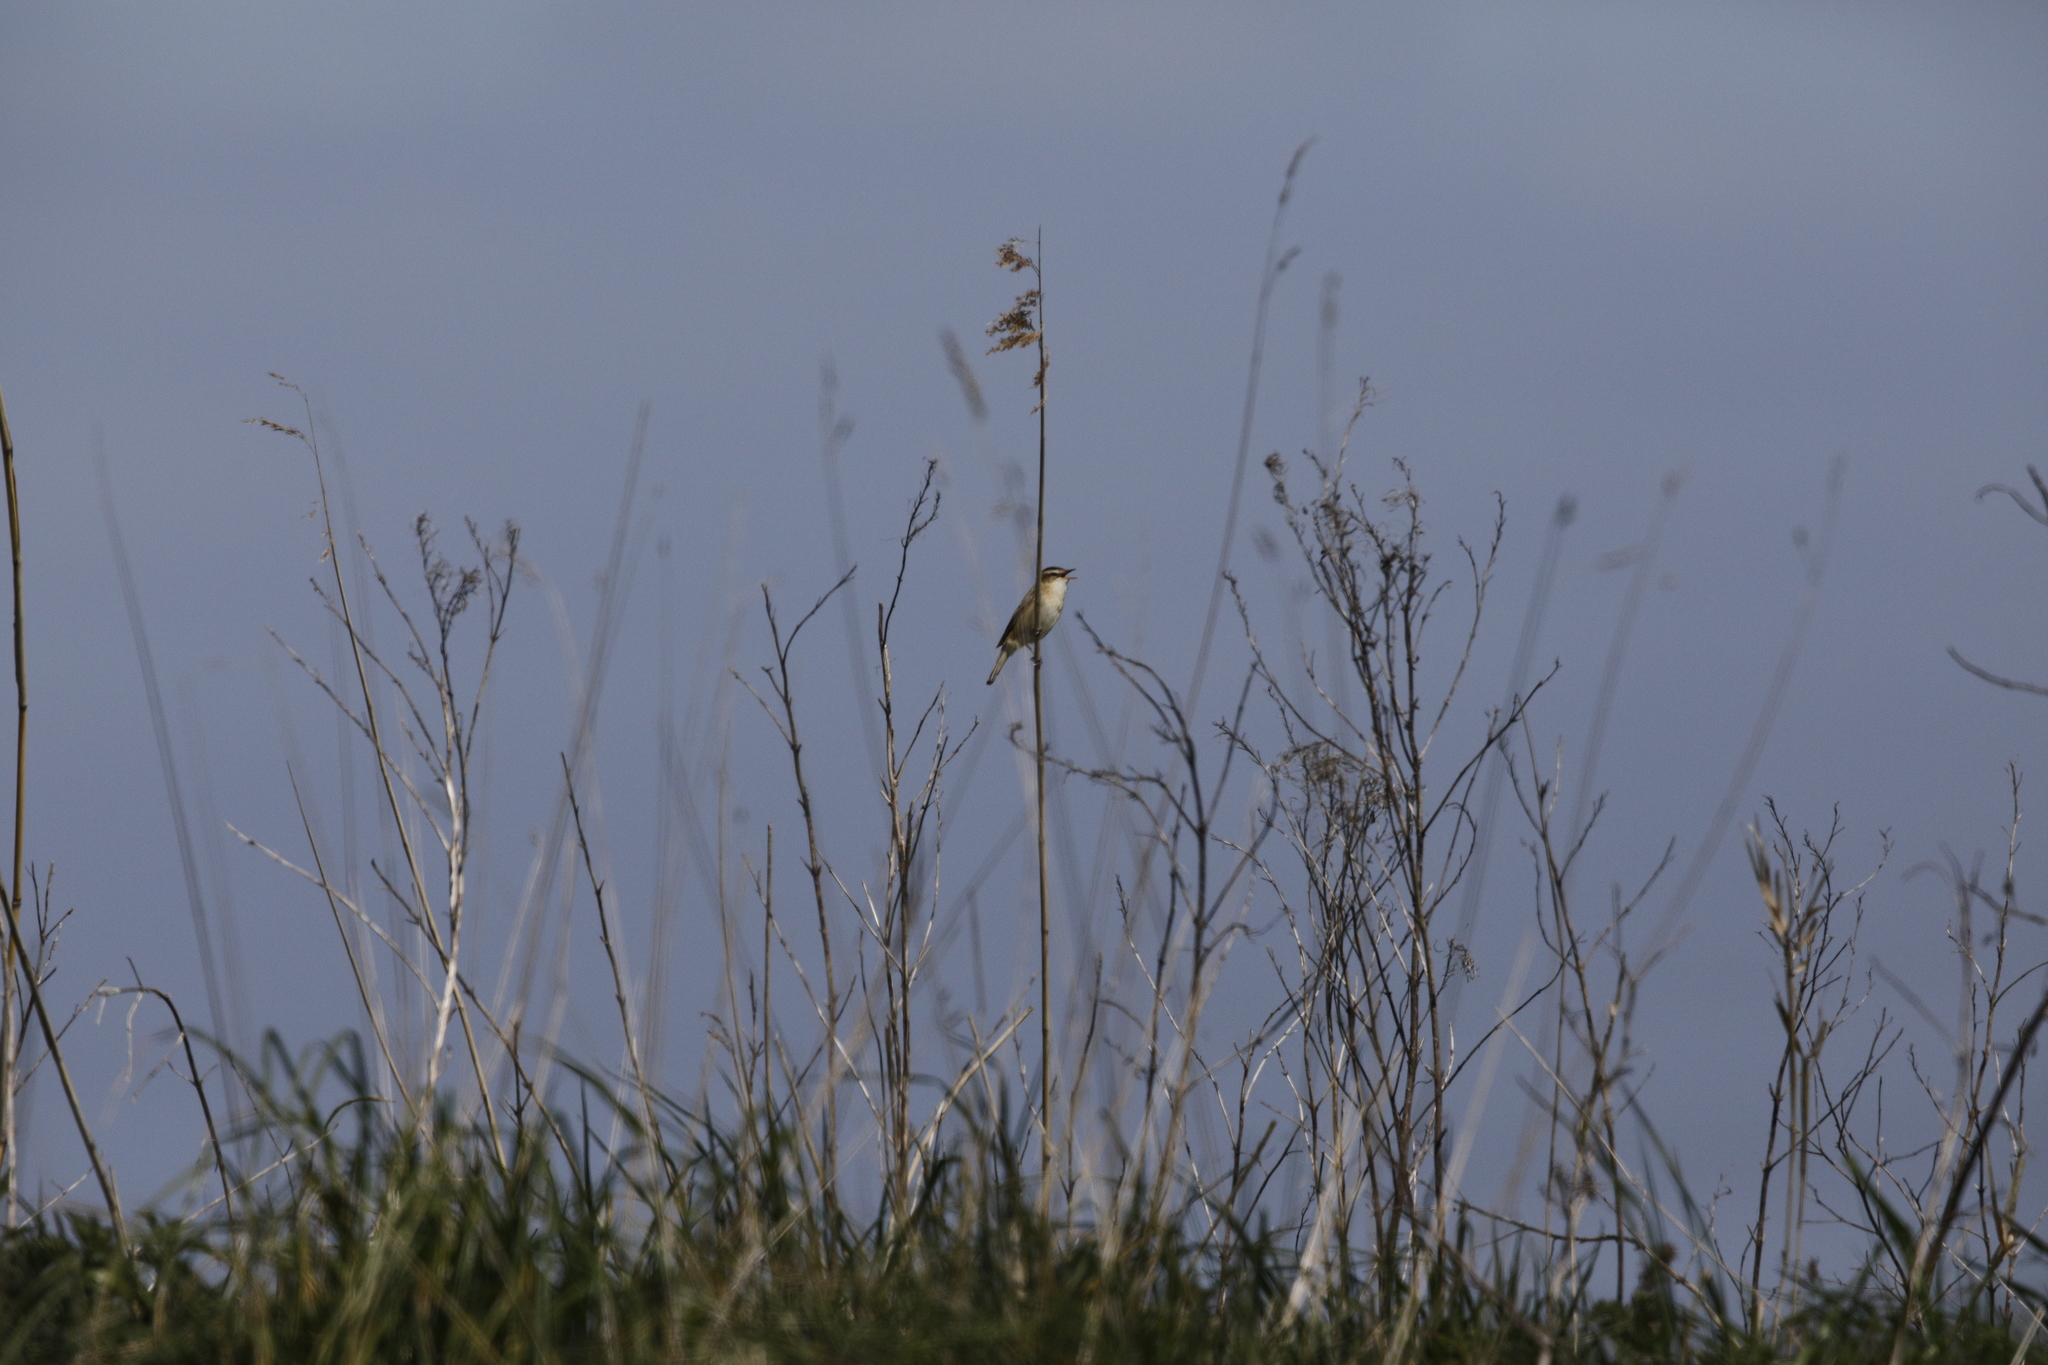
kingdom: Animalia
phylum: Chordata
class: Aves
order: Passeriformes
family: Acrocephalidae
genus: Acrocephalus
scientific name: Acrocephalus schoenobaenus
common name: Sedge warbler
